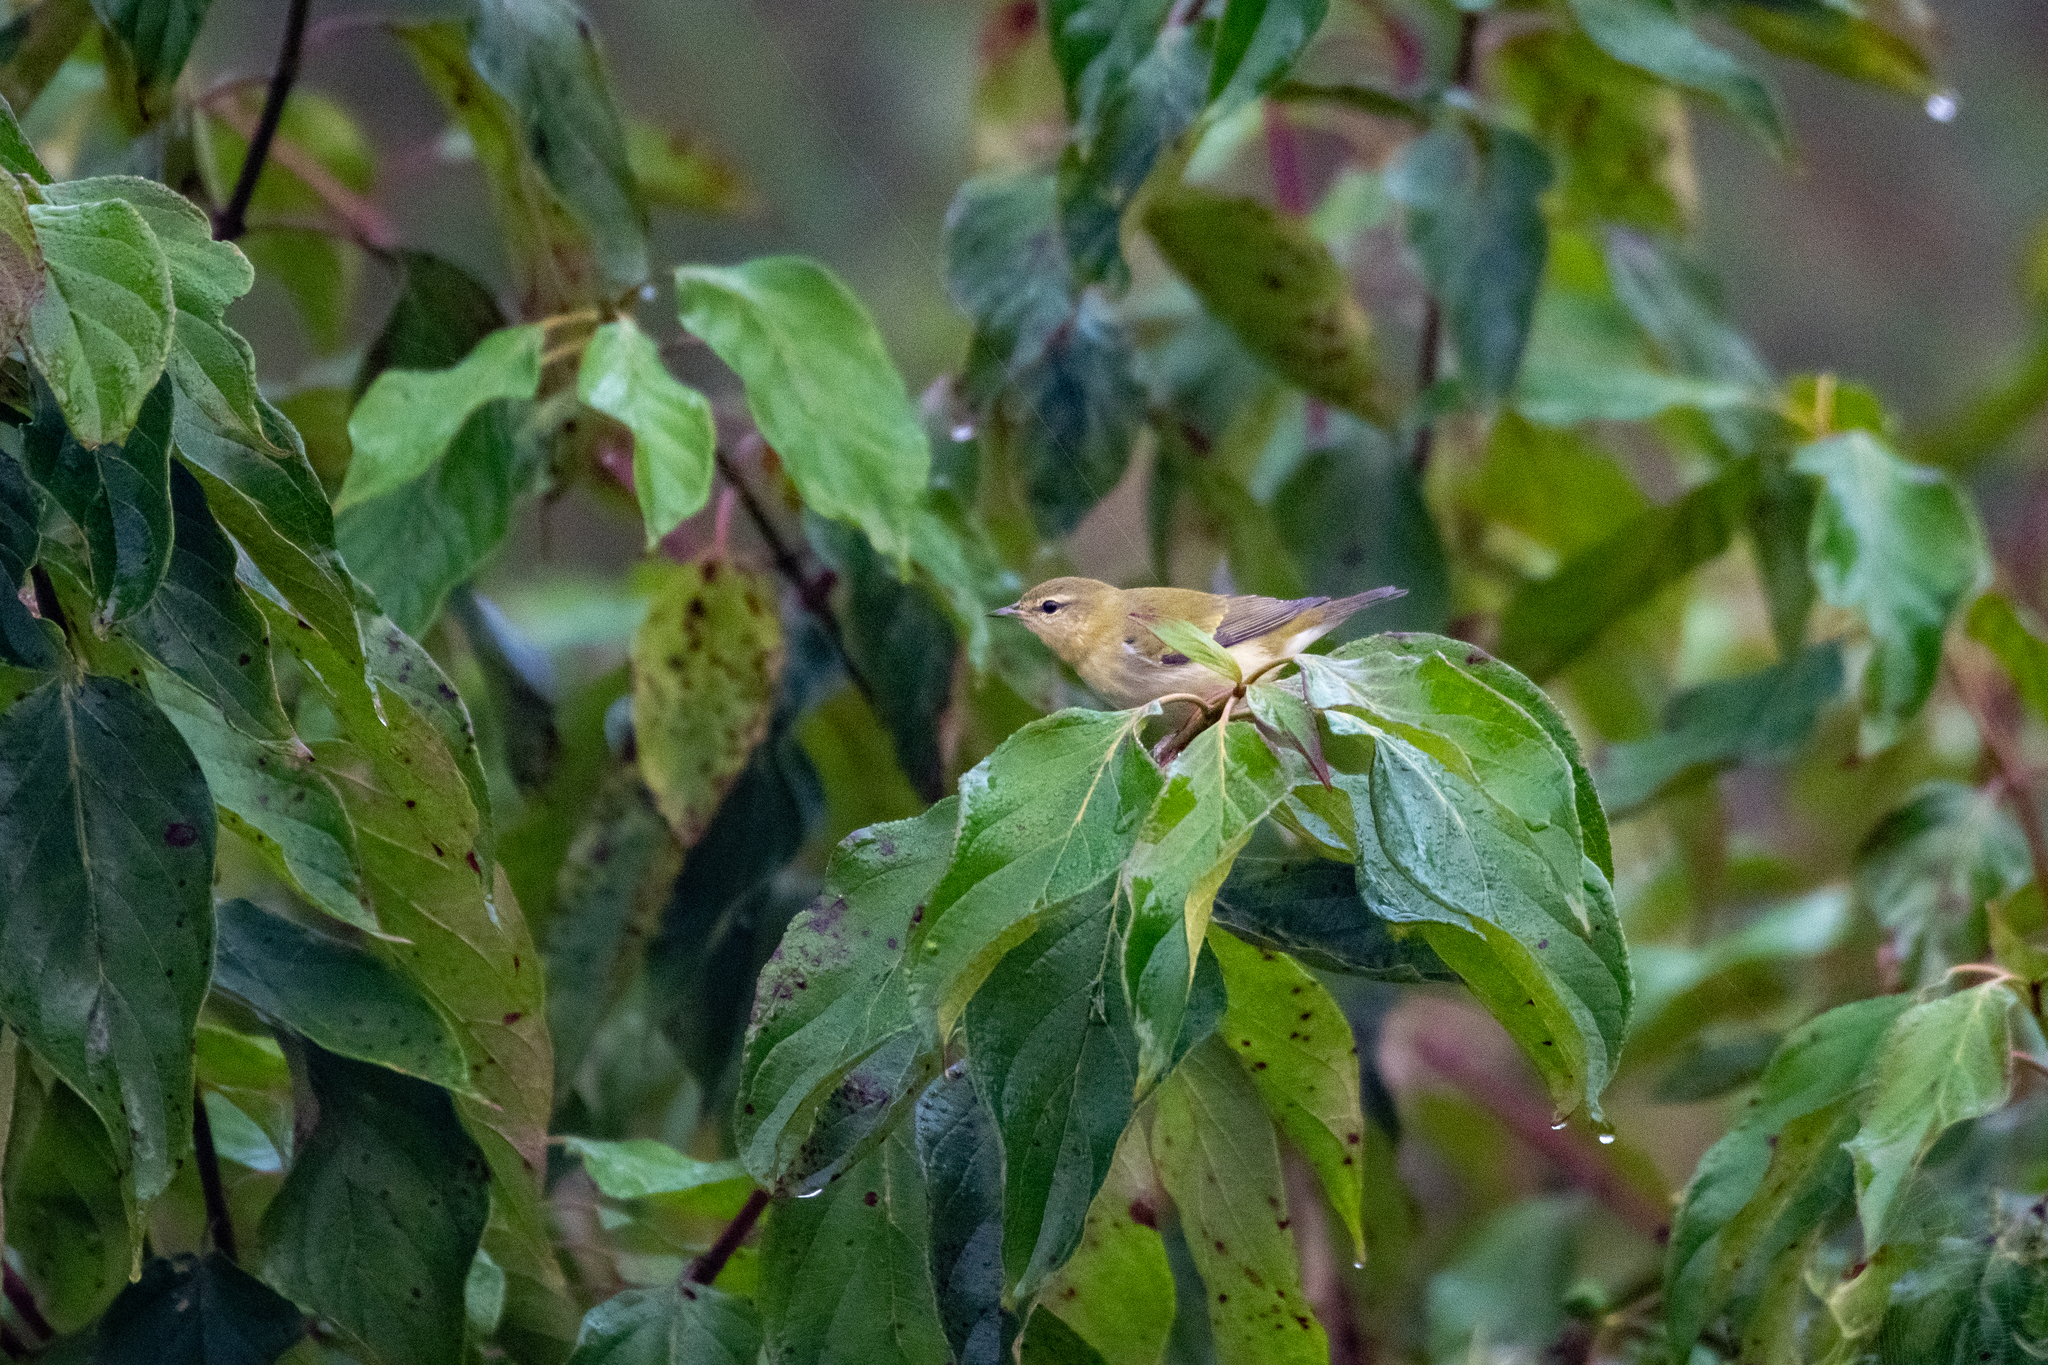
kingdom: Animalia
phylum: Chordata
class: Aves
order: Passeriformes
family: Parulidae
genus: Leiothlypis
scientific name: Leiothlypis peregrina
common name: Tennessee warbler
